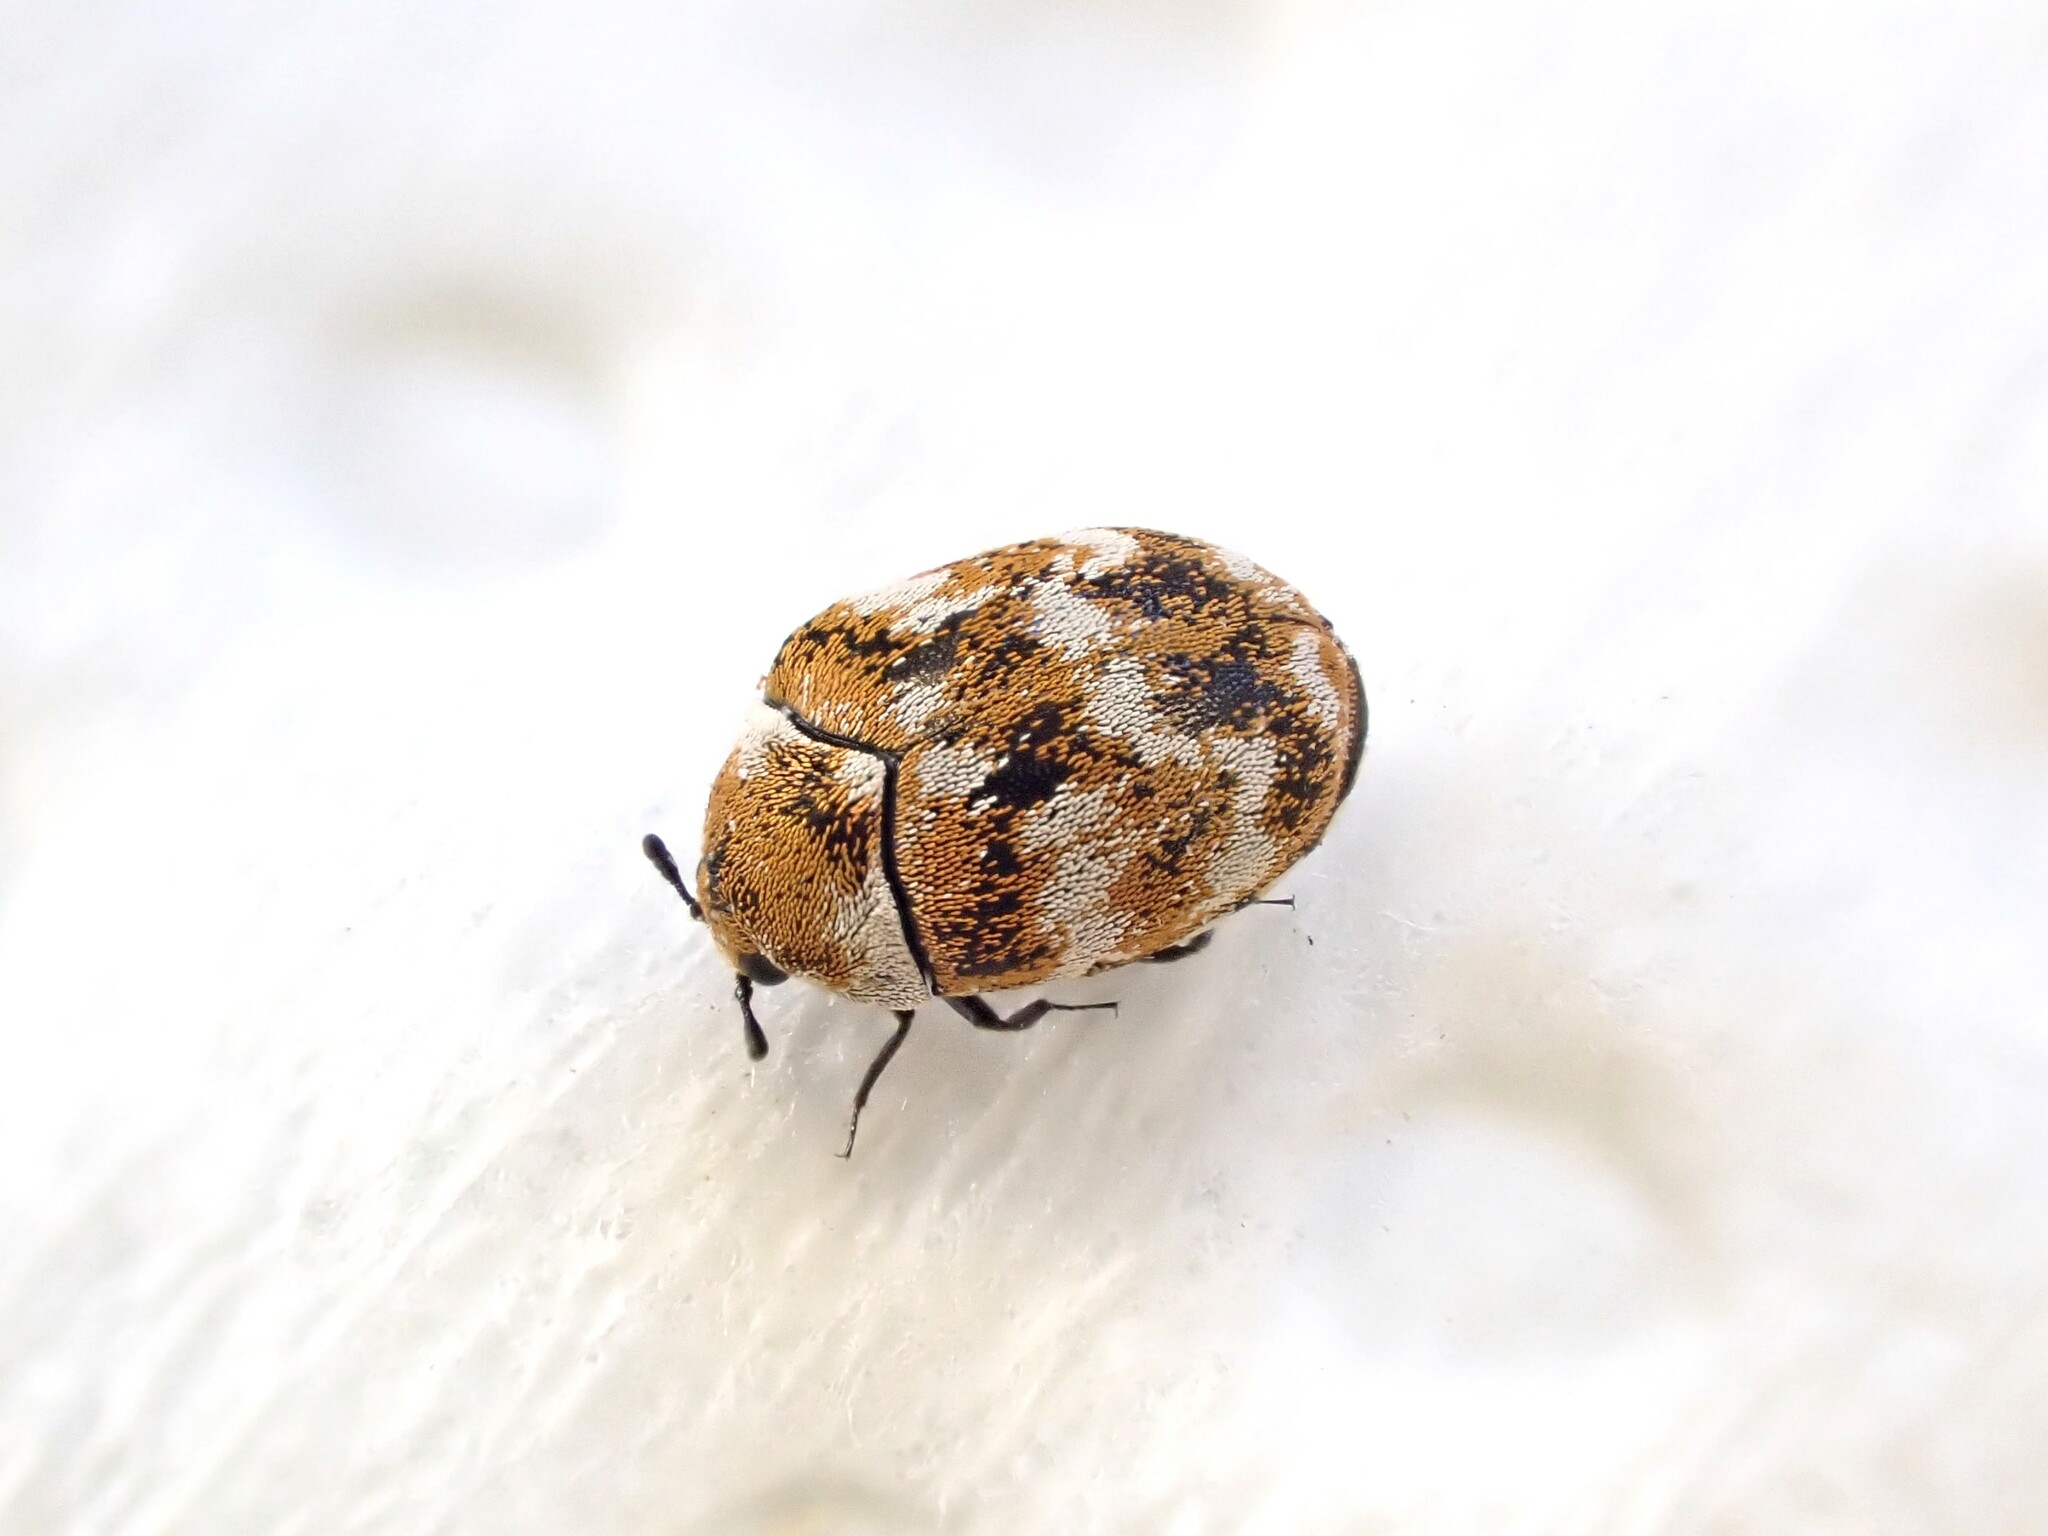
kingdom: Animalia
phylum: Arthropoda
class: Insecta
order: Coleoptera
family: Dermestidae
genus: Anthrenus
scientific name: Anthrenus verbasci
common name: Varied carpet beetle
